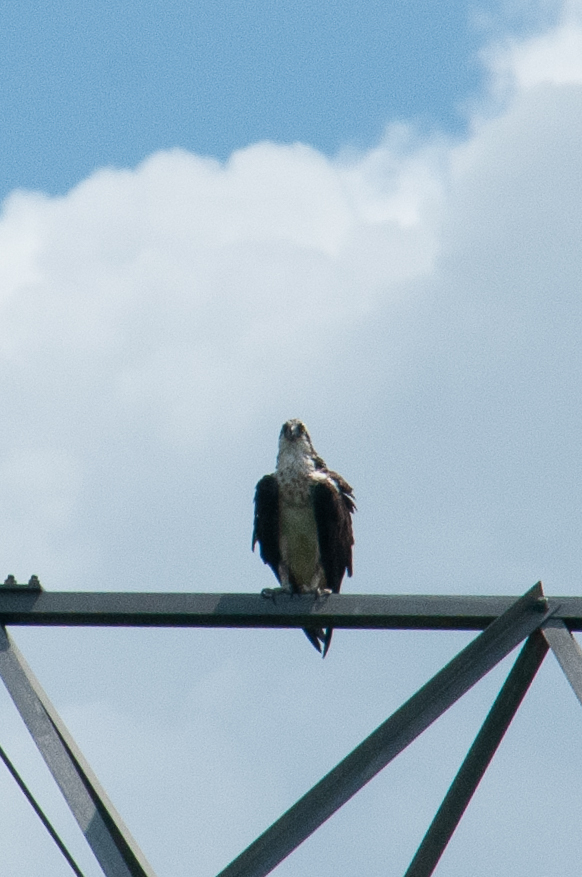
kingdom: Animalia
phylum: Chordata
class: Aves
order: Accipitriformes
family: Pandionidae
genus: Pandion
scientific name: Pandion haliaetus
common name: Osprey
